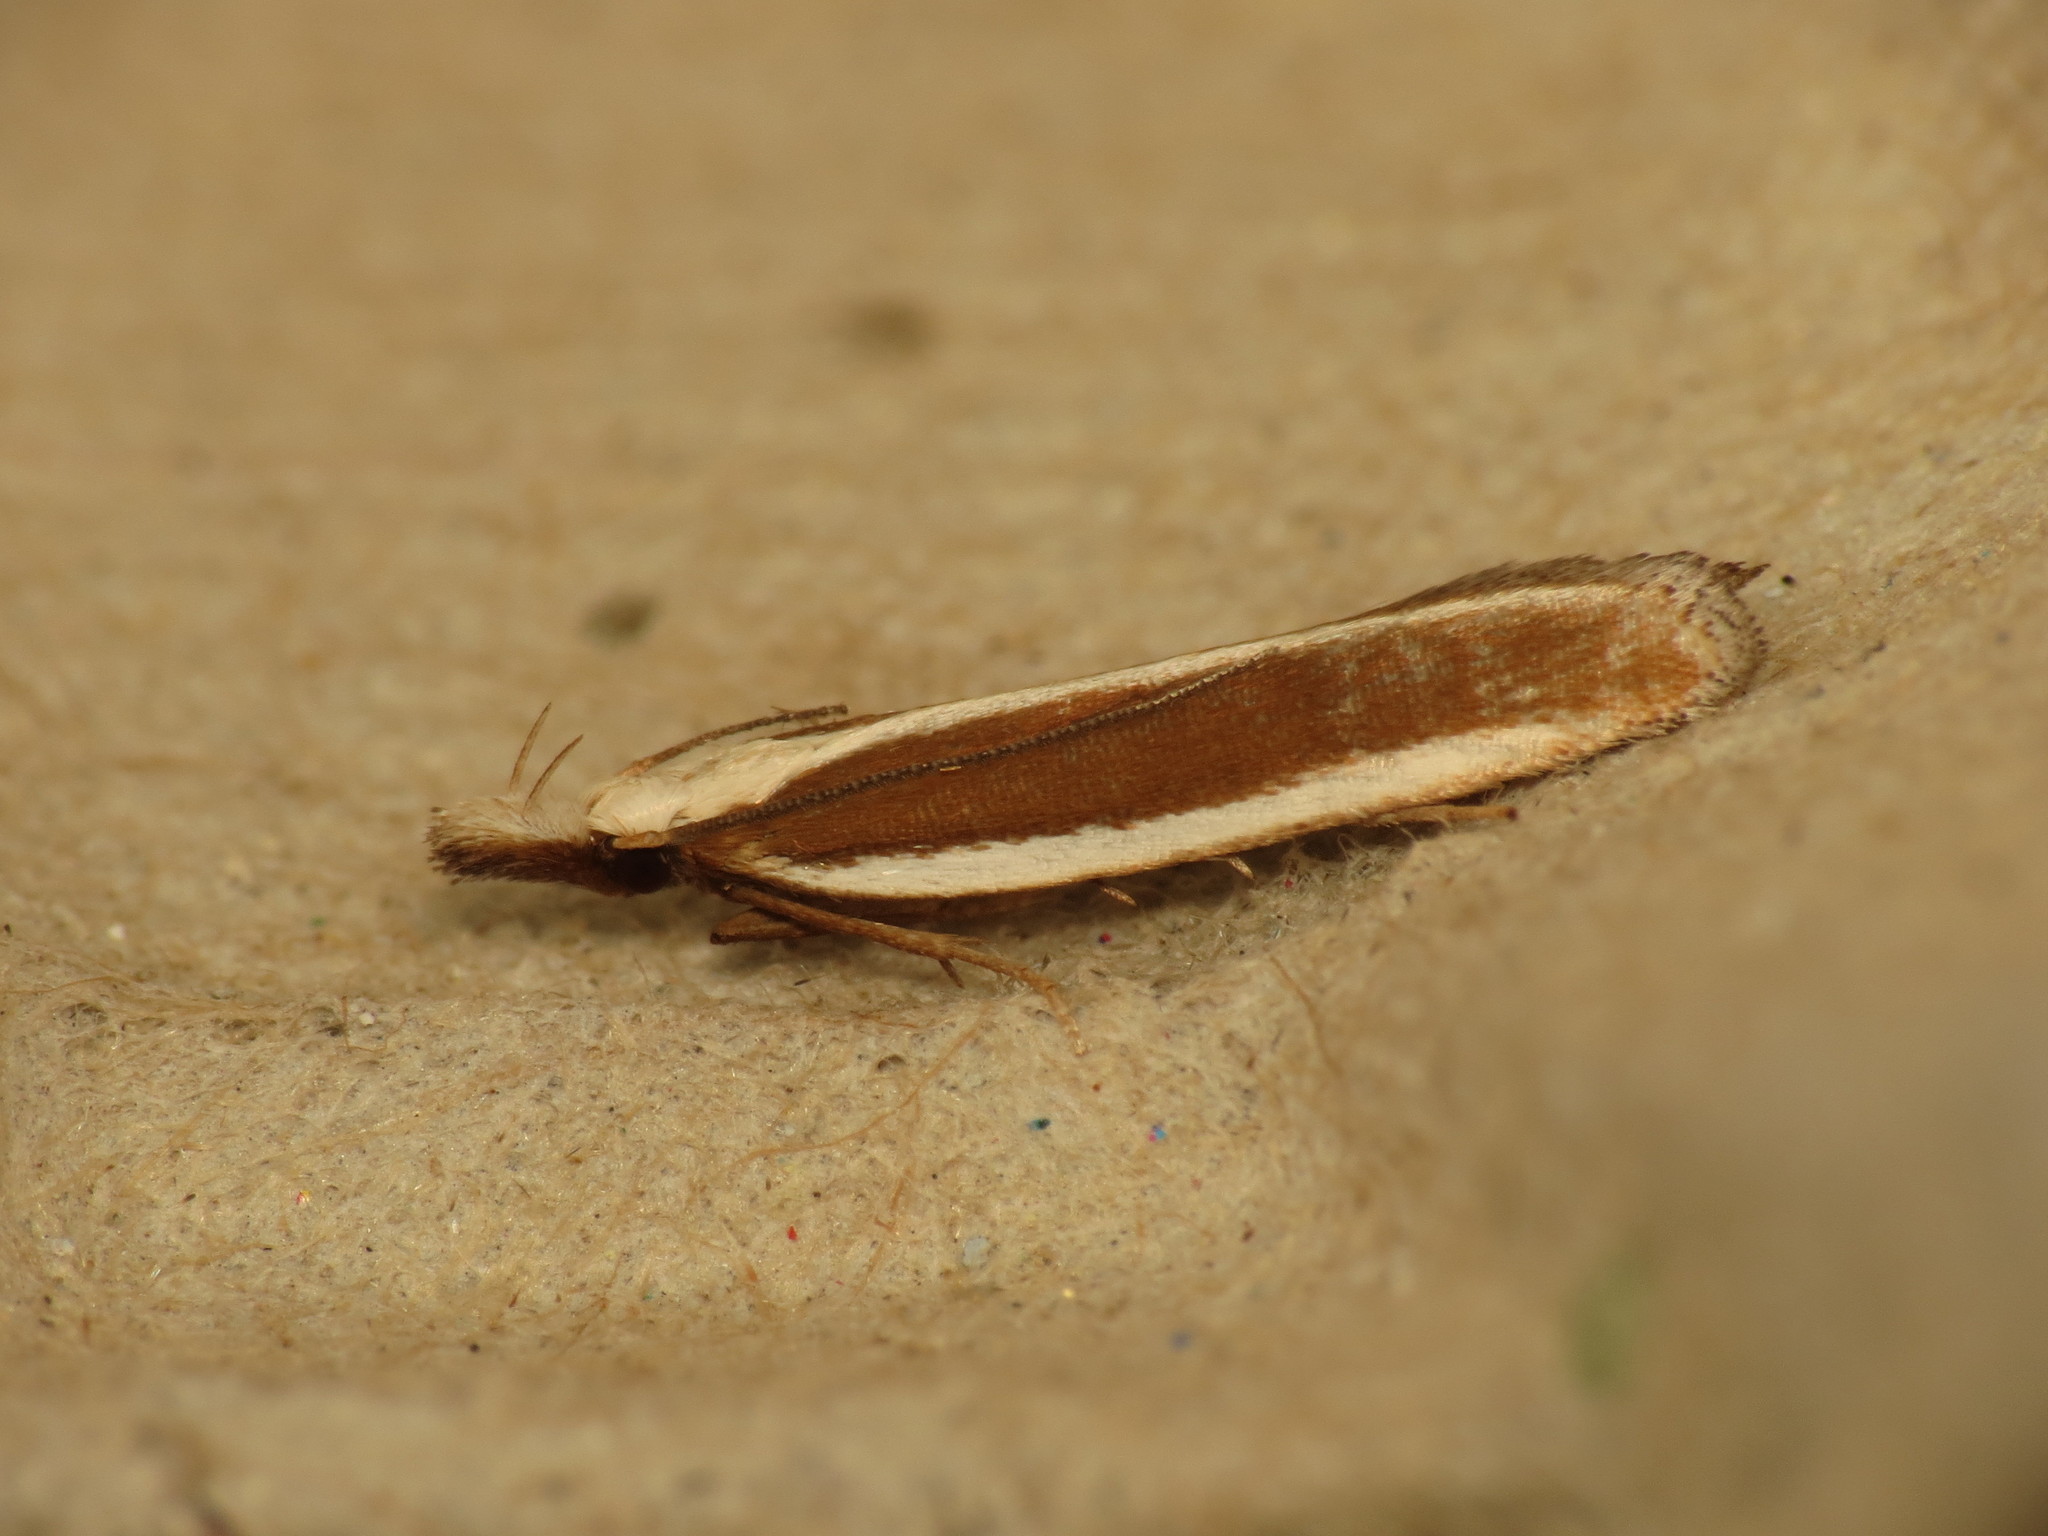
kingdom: Animalia
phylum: Arthropoda
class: Insecta
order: Lepidoptera
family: Gelechiidae
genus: Dichomeris
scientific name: Dichomeris marginella
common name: Juniper webworm
